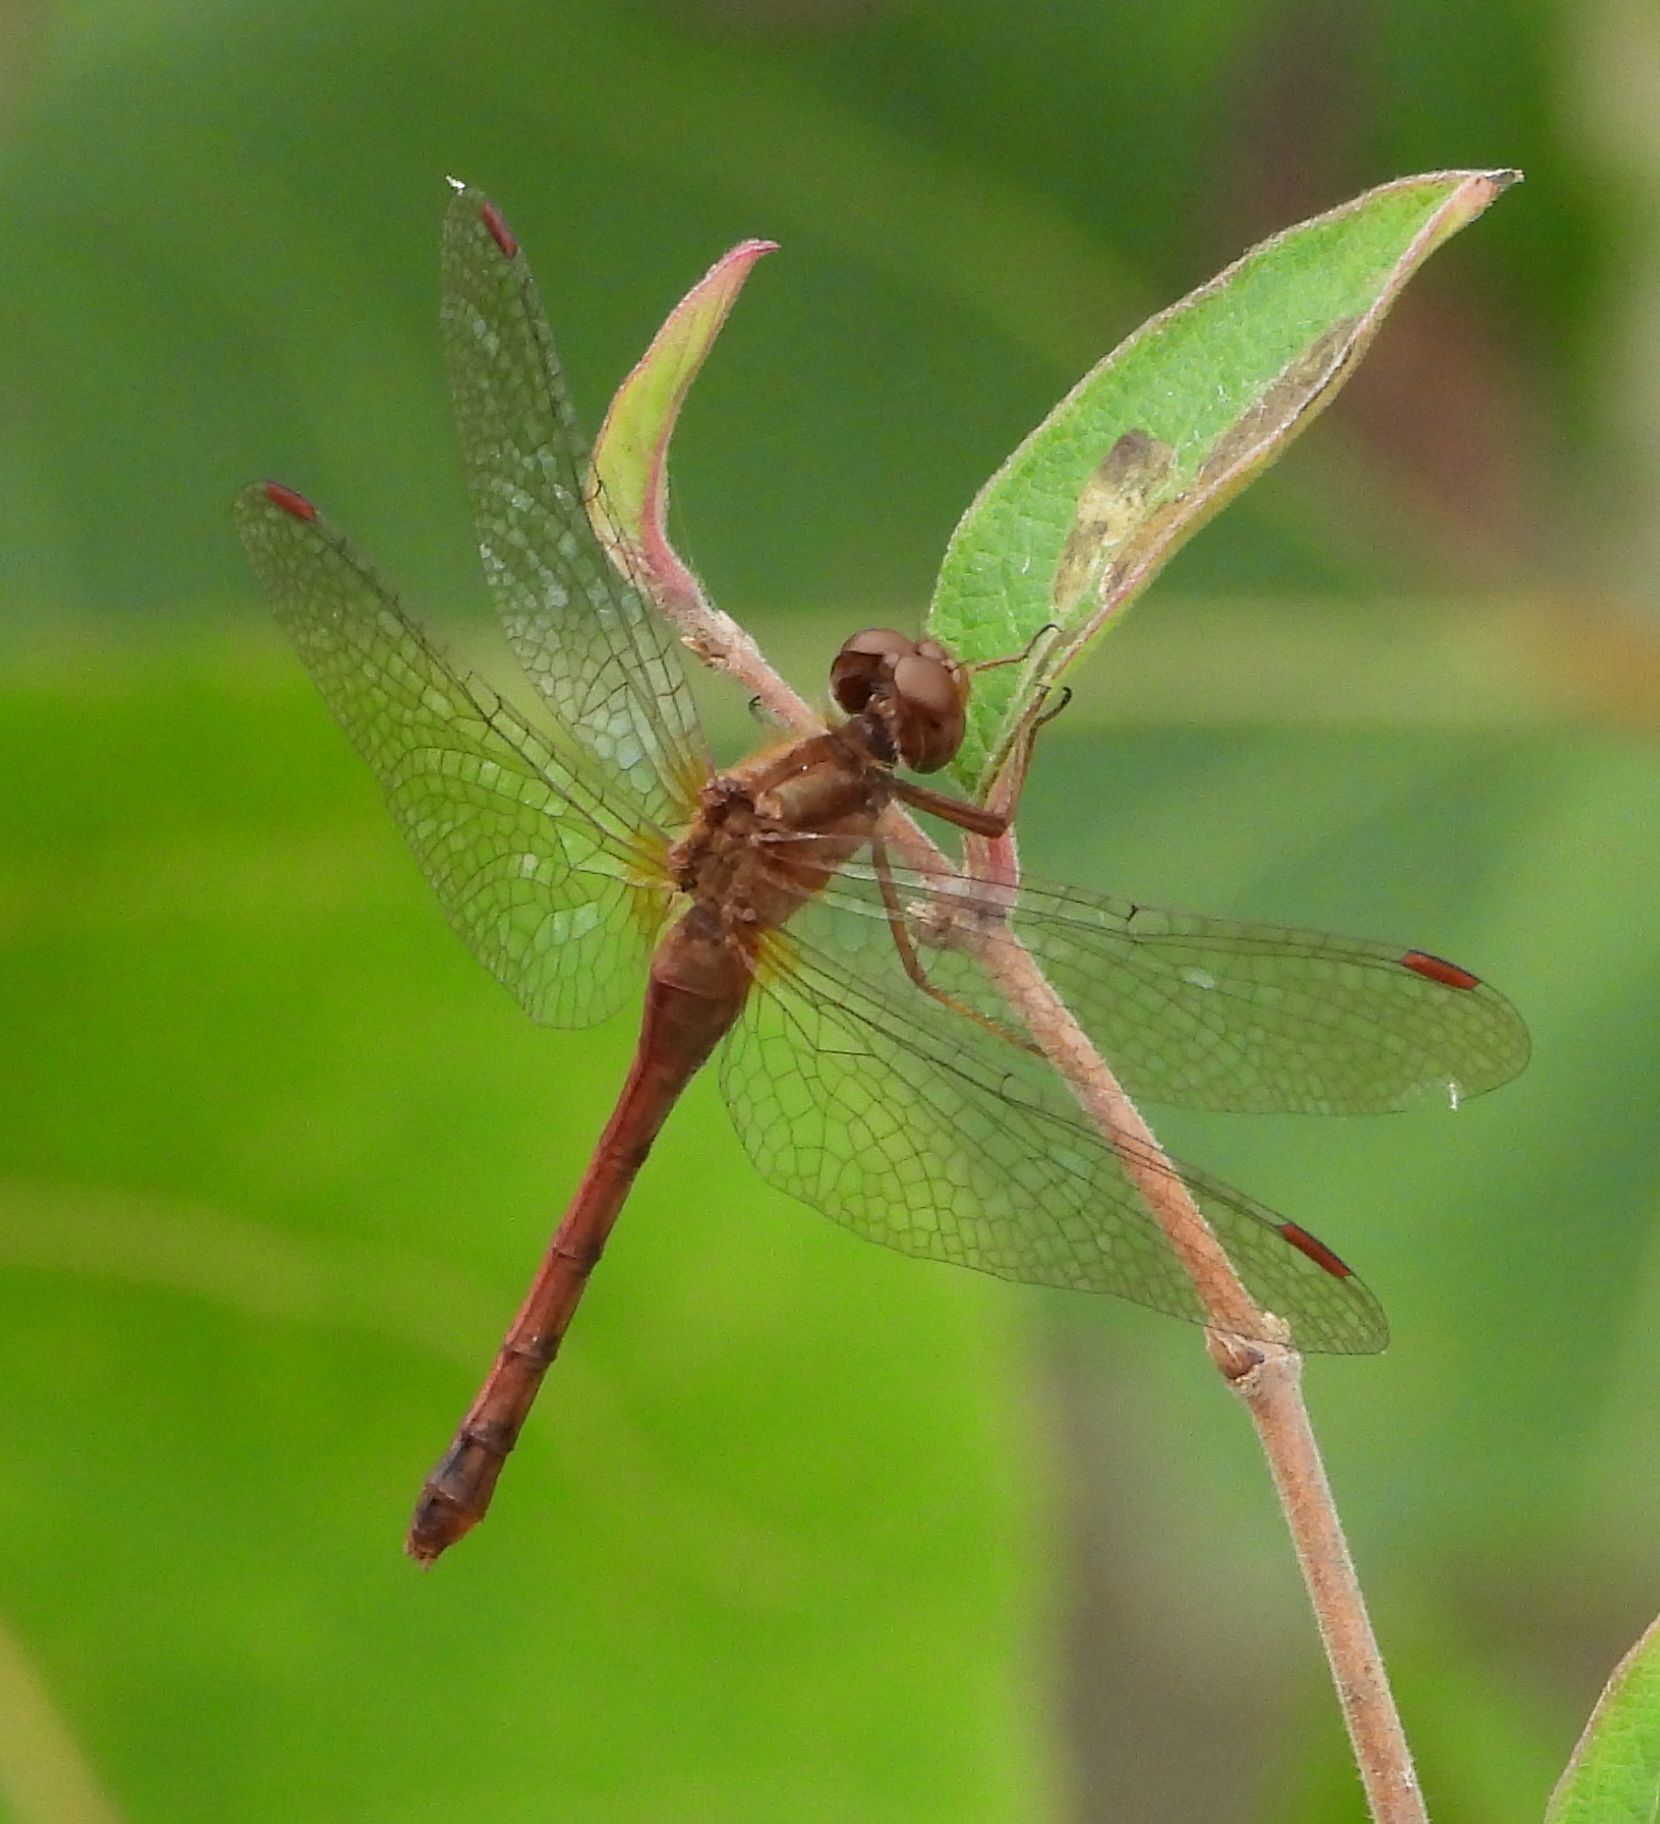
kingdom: Animalia
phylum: Arthropoda
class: Insecta
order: Odonata
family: Libellulidae
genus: Sympetrum
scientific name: Sympetrum vicinum
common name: Autumn meadowhawk
